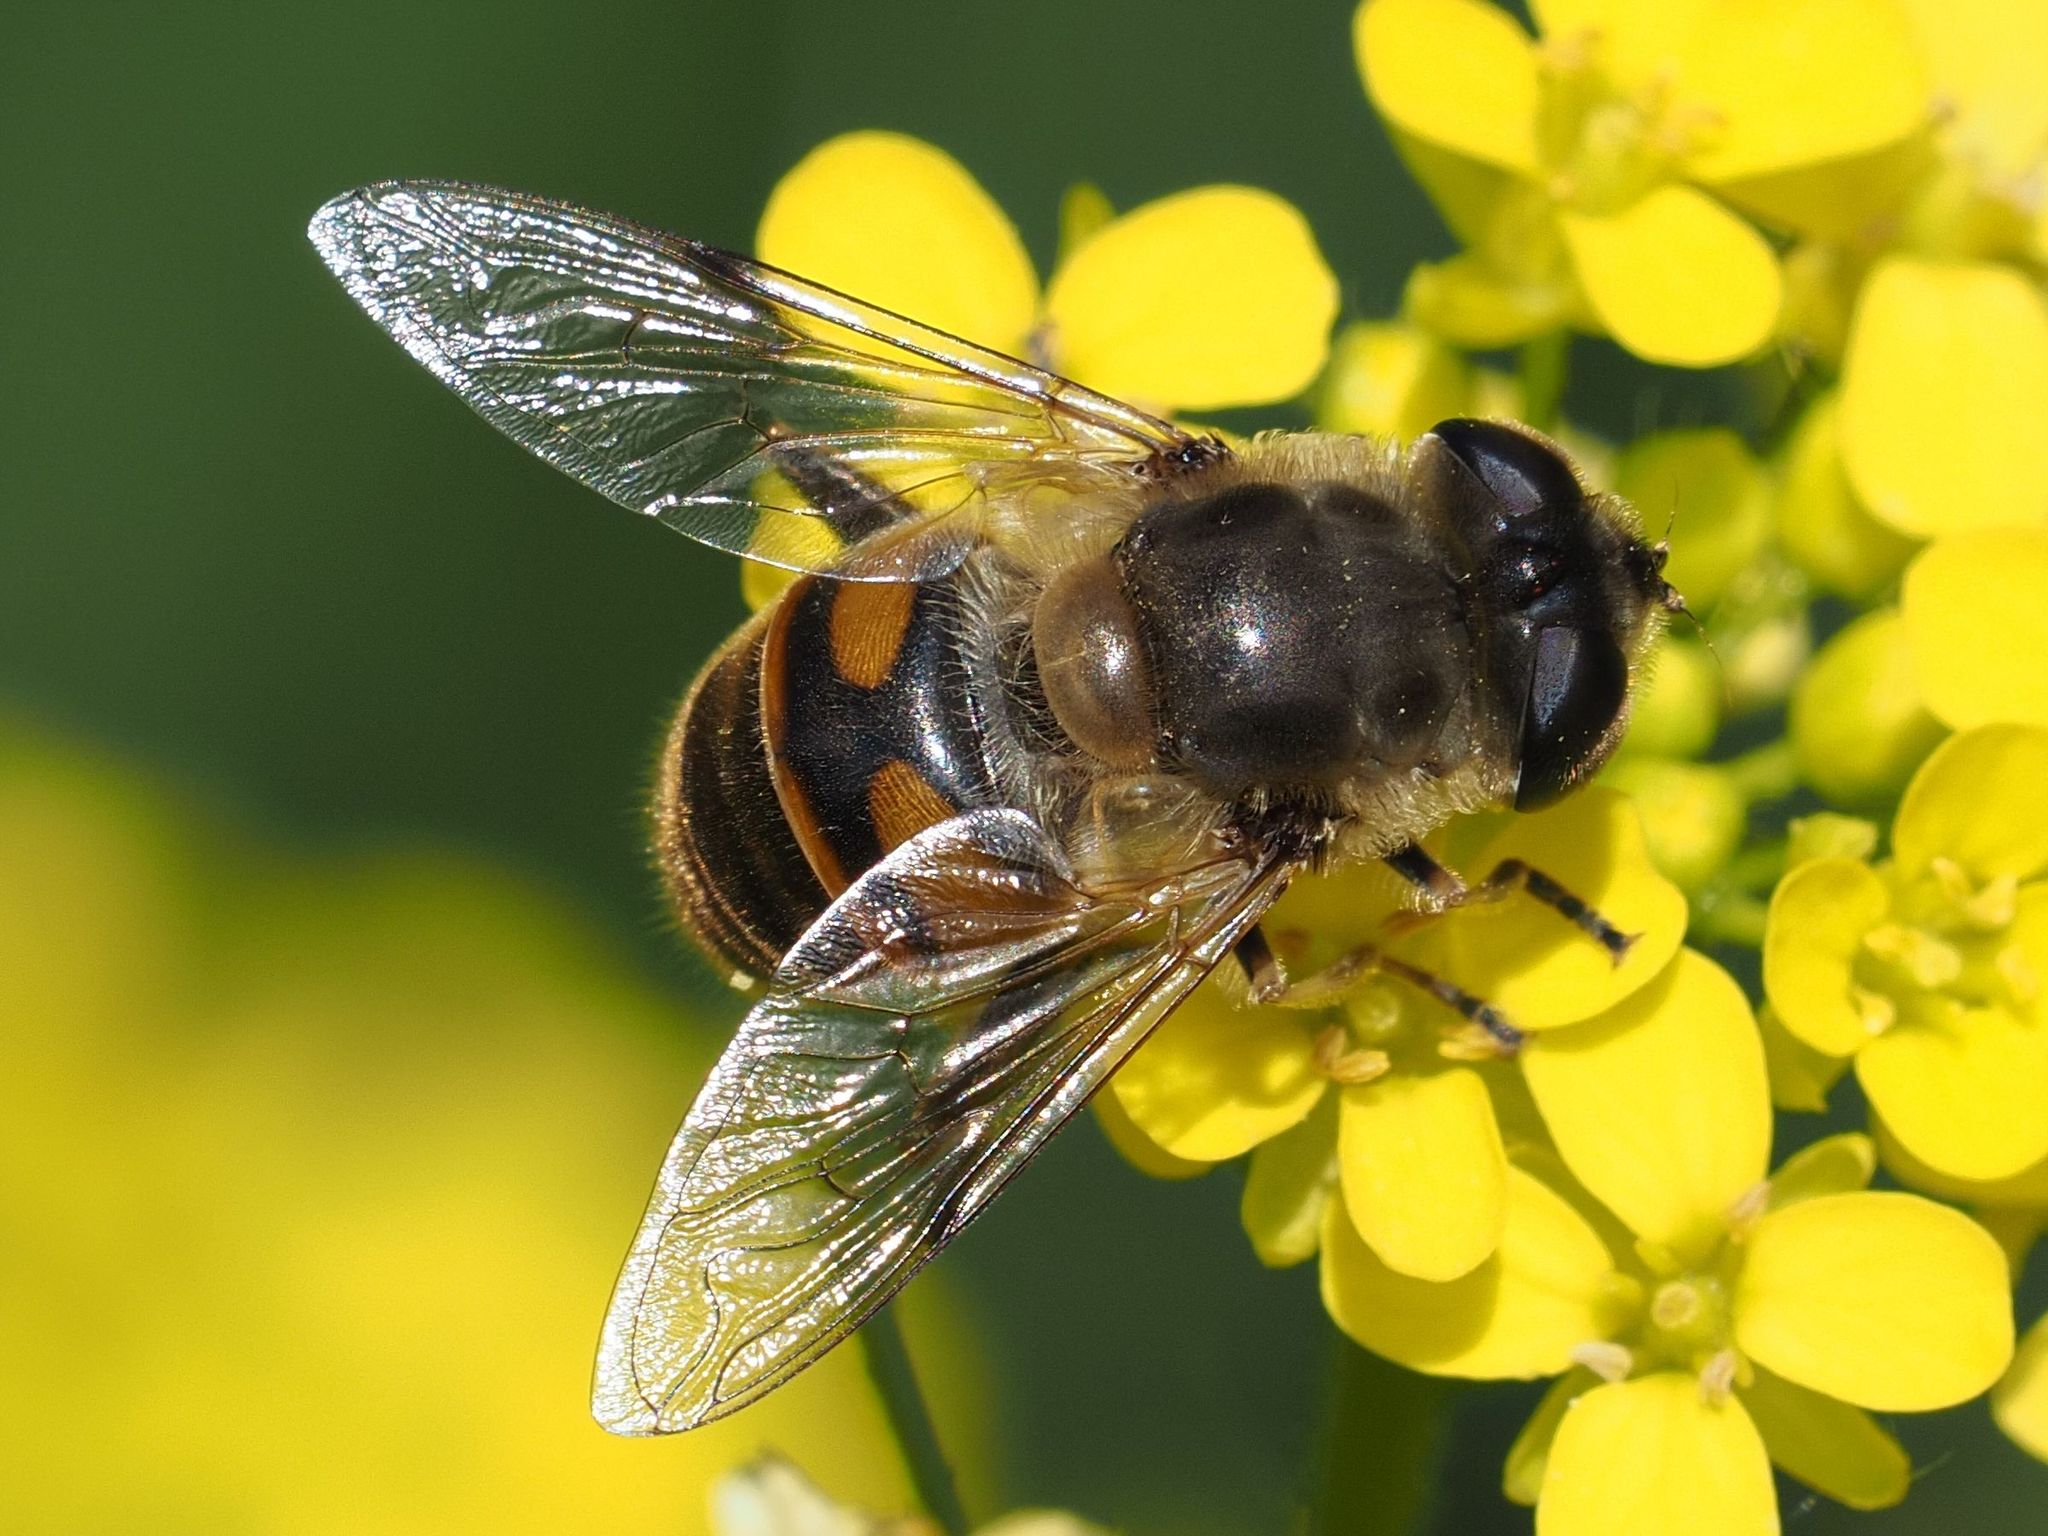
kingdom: Animalia
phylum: Arthropoda
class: Insecta
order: Diptera
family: Syrphidae
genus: Eristalis
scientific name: Eristalis tenax
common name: Drone fly
